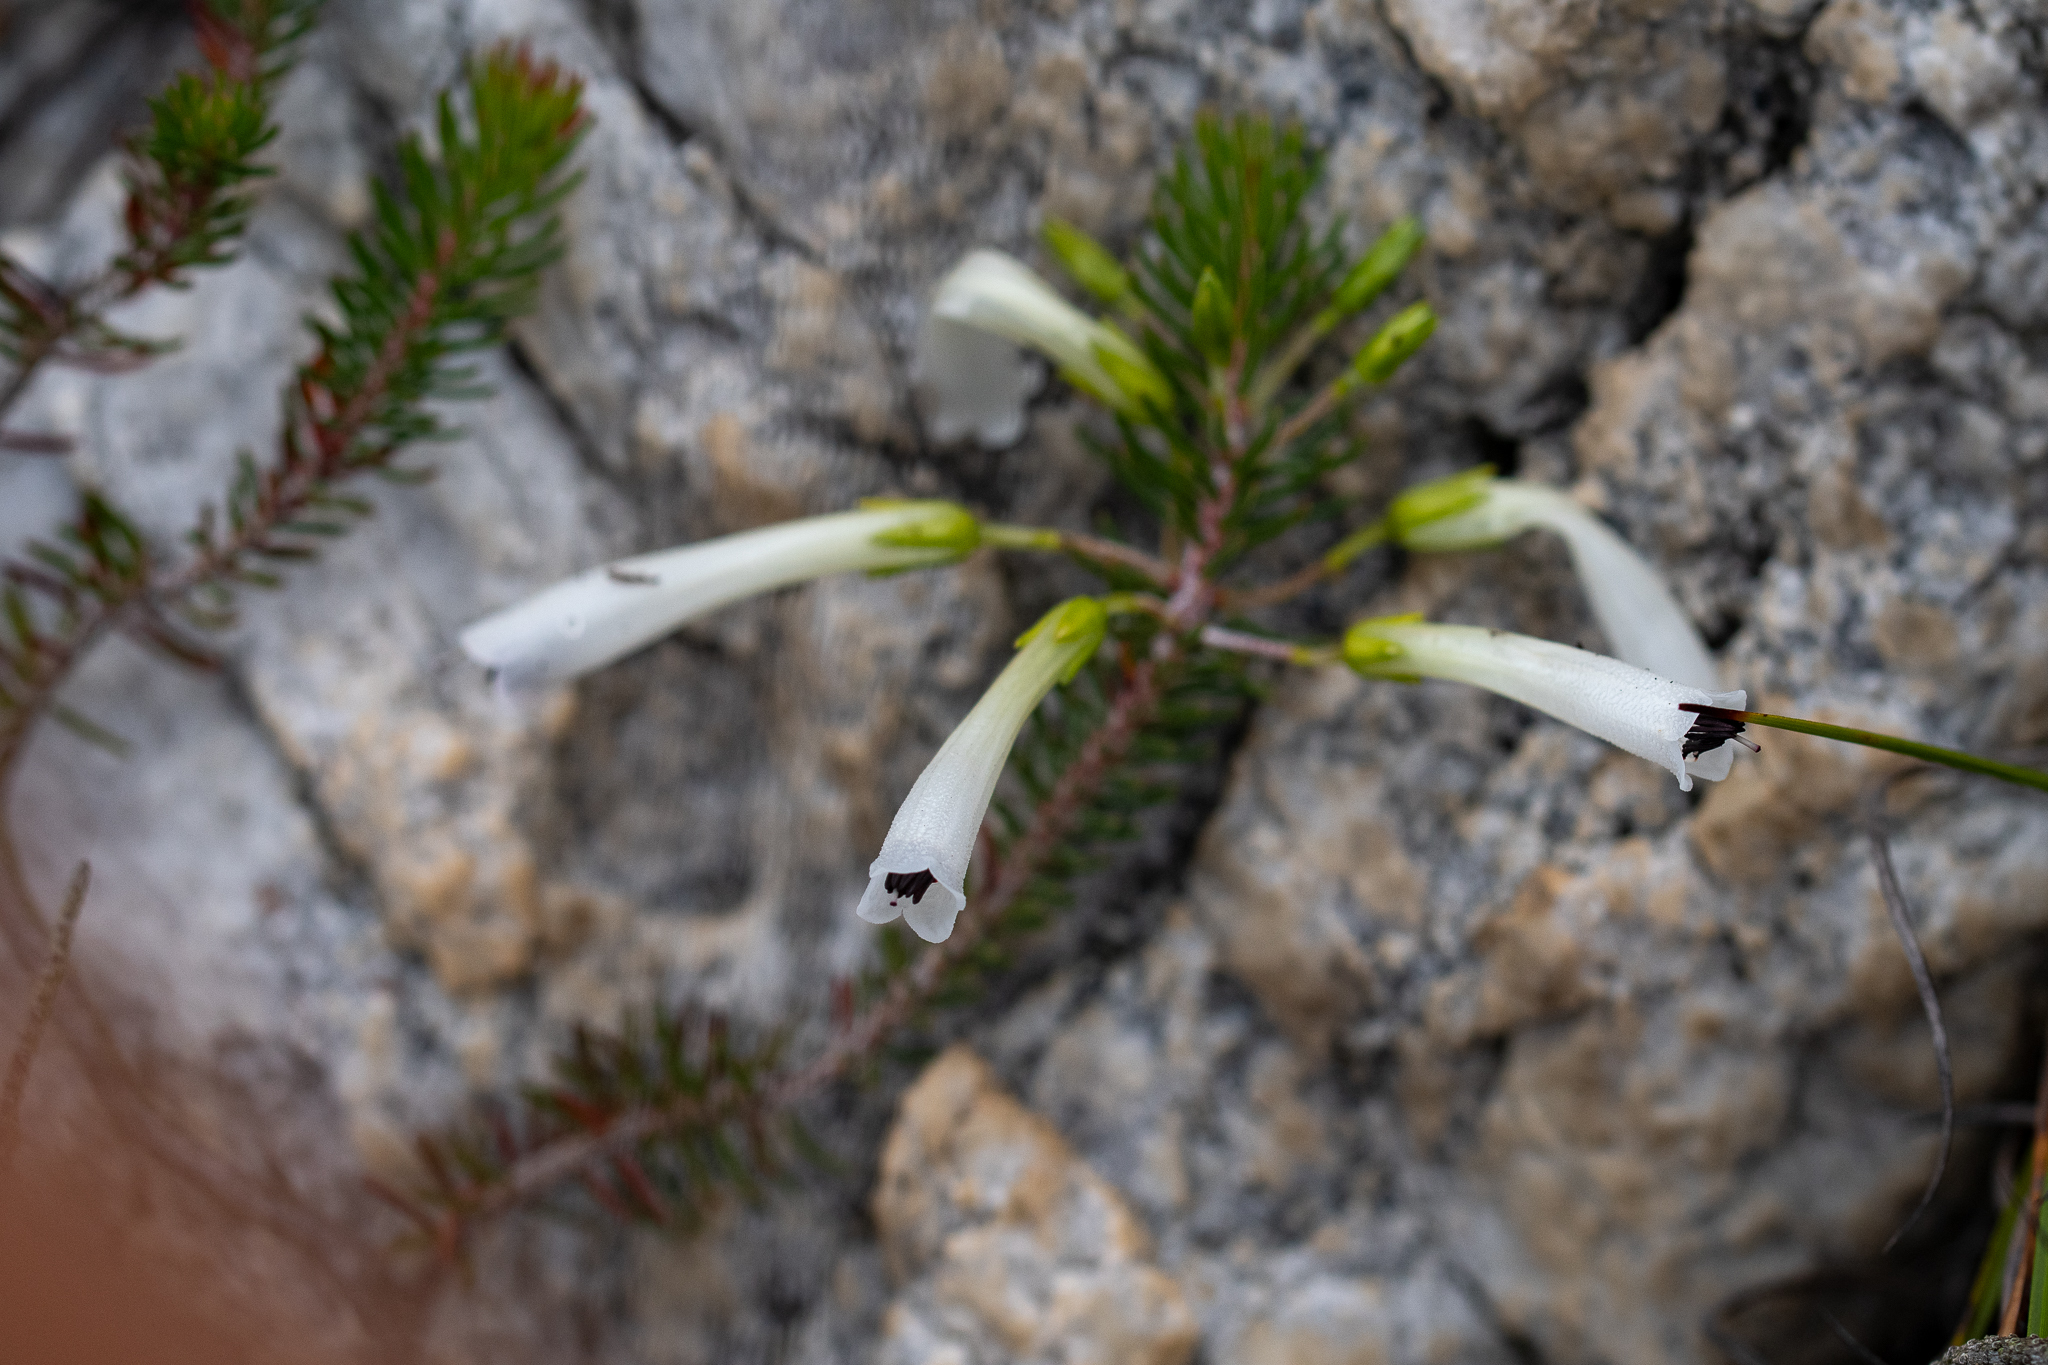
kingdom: Plantae
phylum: Tracheophyta
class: Magnoliopsida
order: Ericales
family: Ericaceae
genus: Erica
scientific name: Erica thomae
